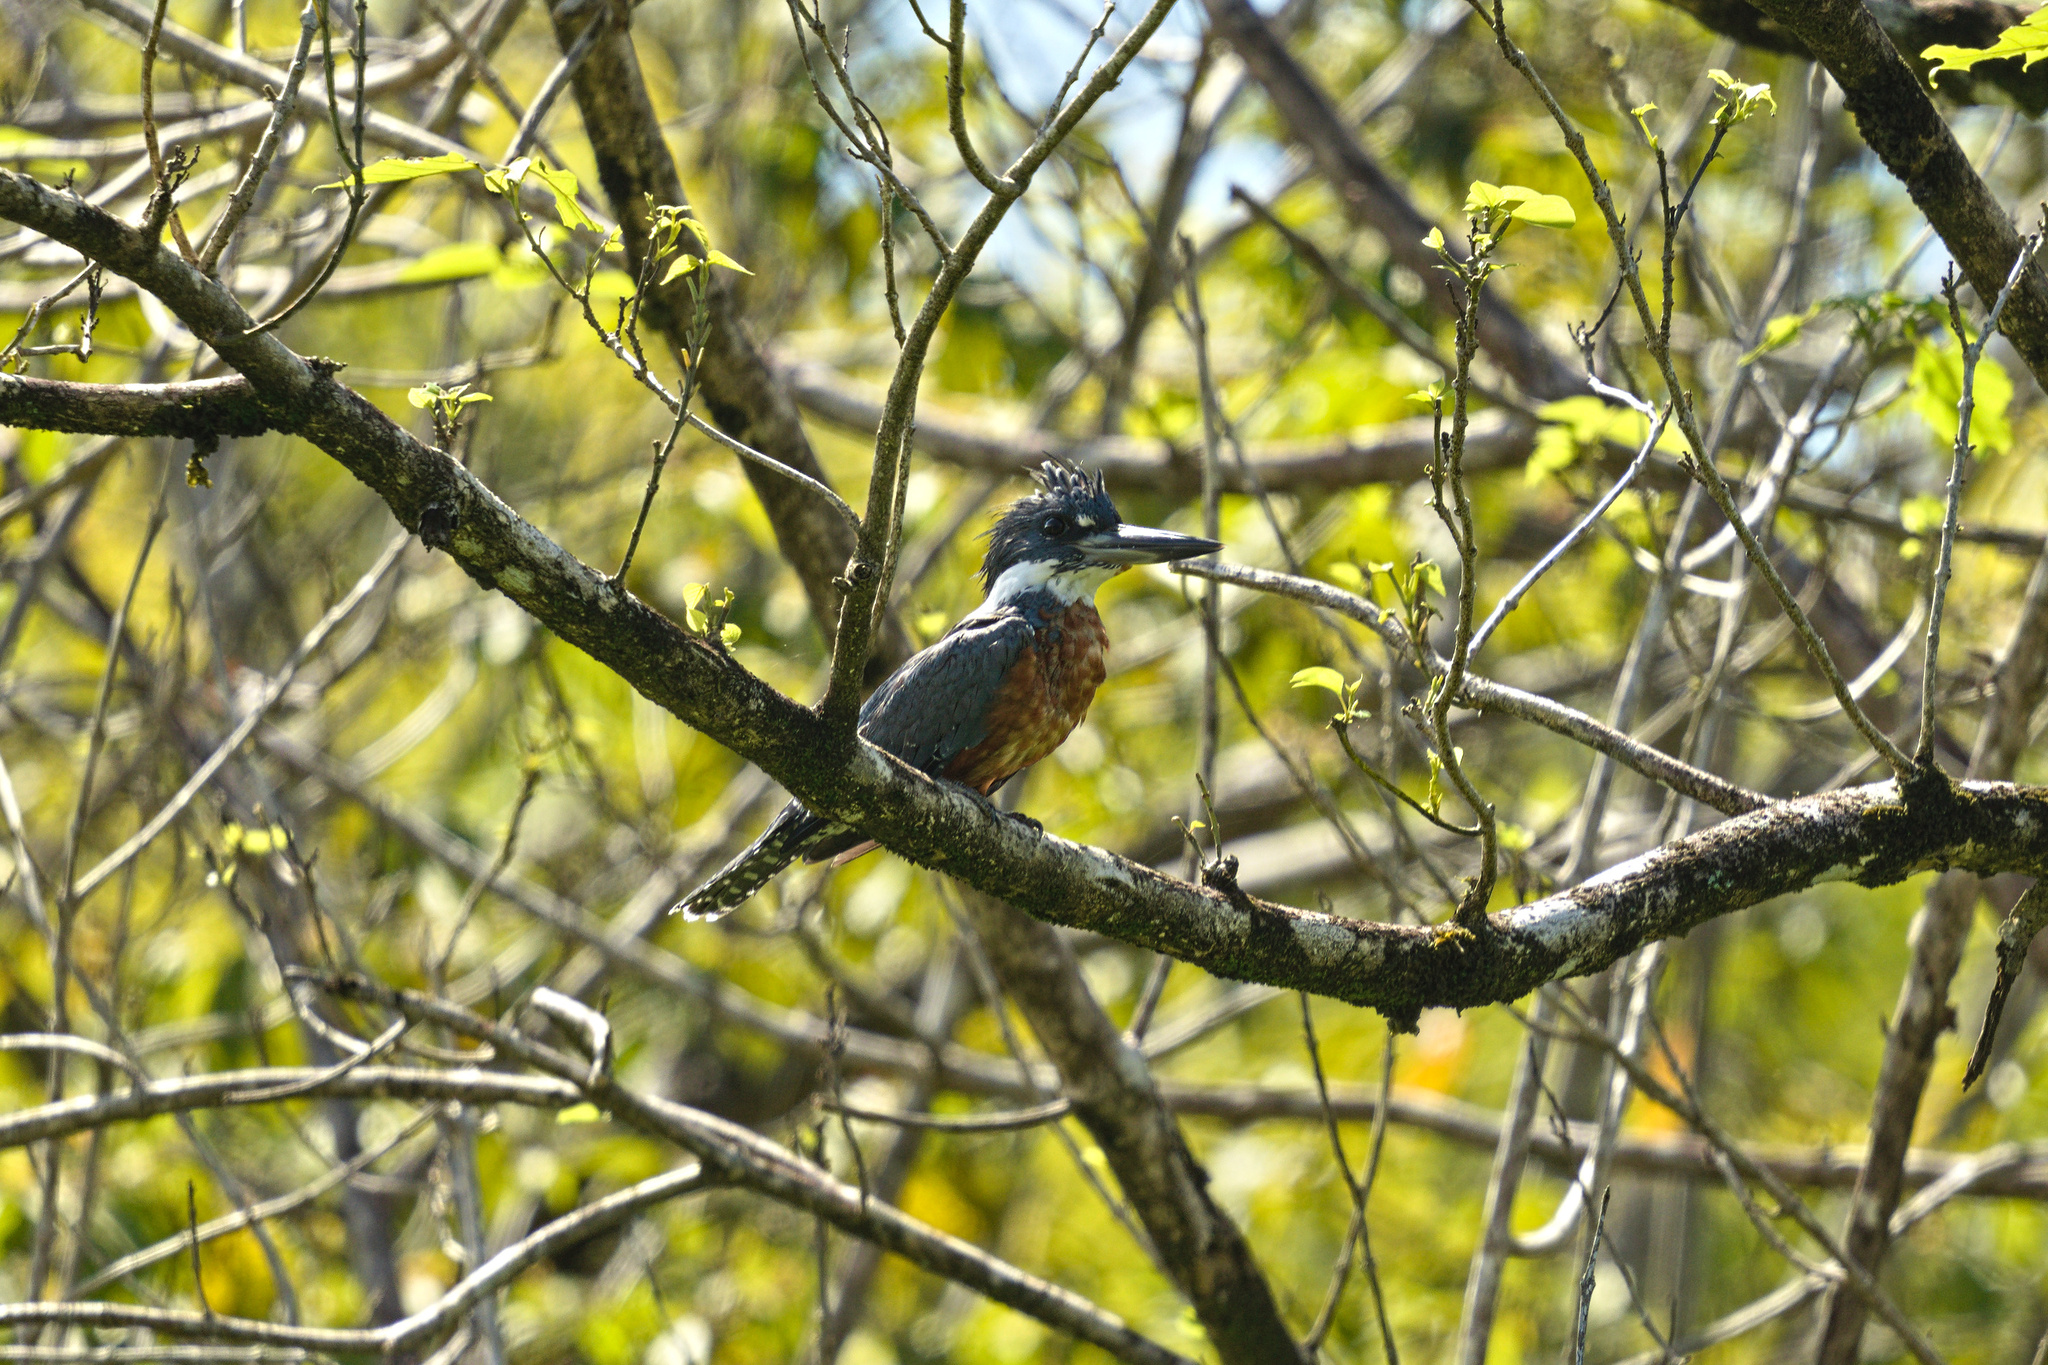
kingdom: Animalia
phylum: Chordata
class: Aves
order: Coraciiformes
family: Alcedinidae
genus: Megaceryle
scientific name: Megaceryle torquata
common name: Ringed kingfisher
